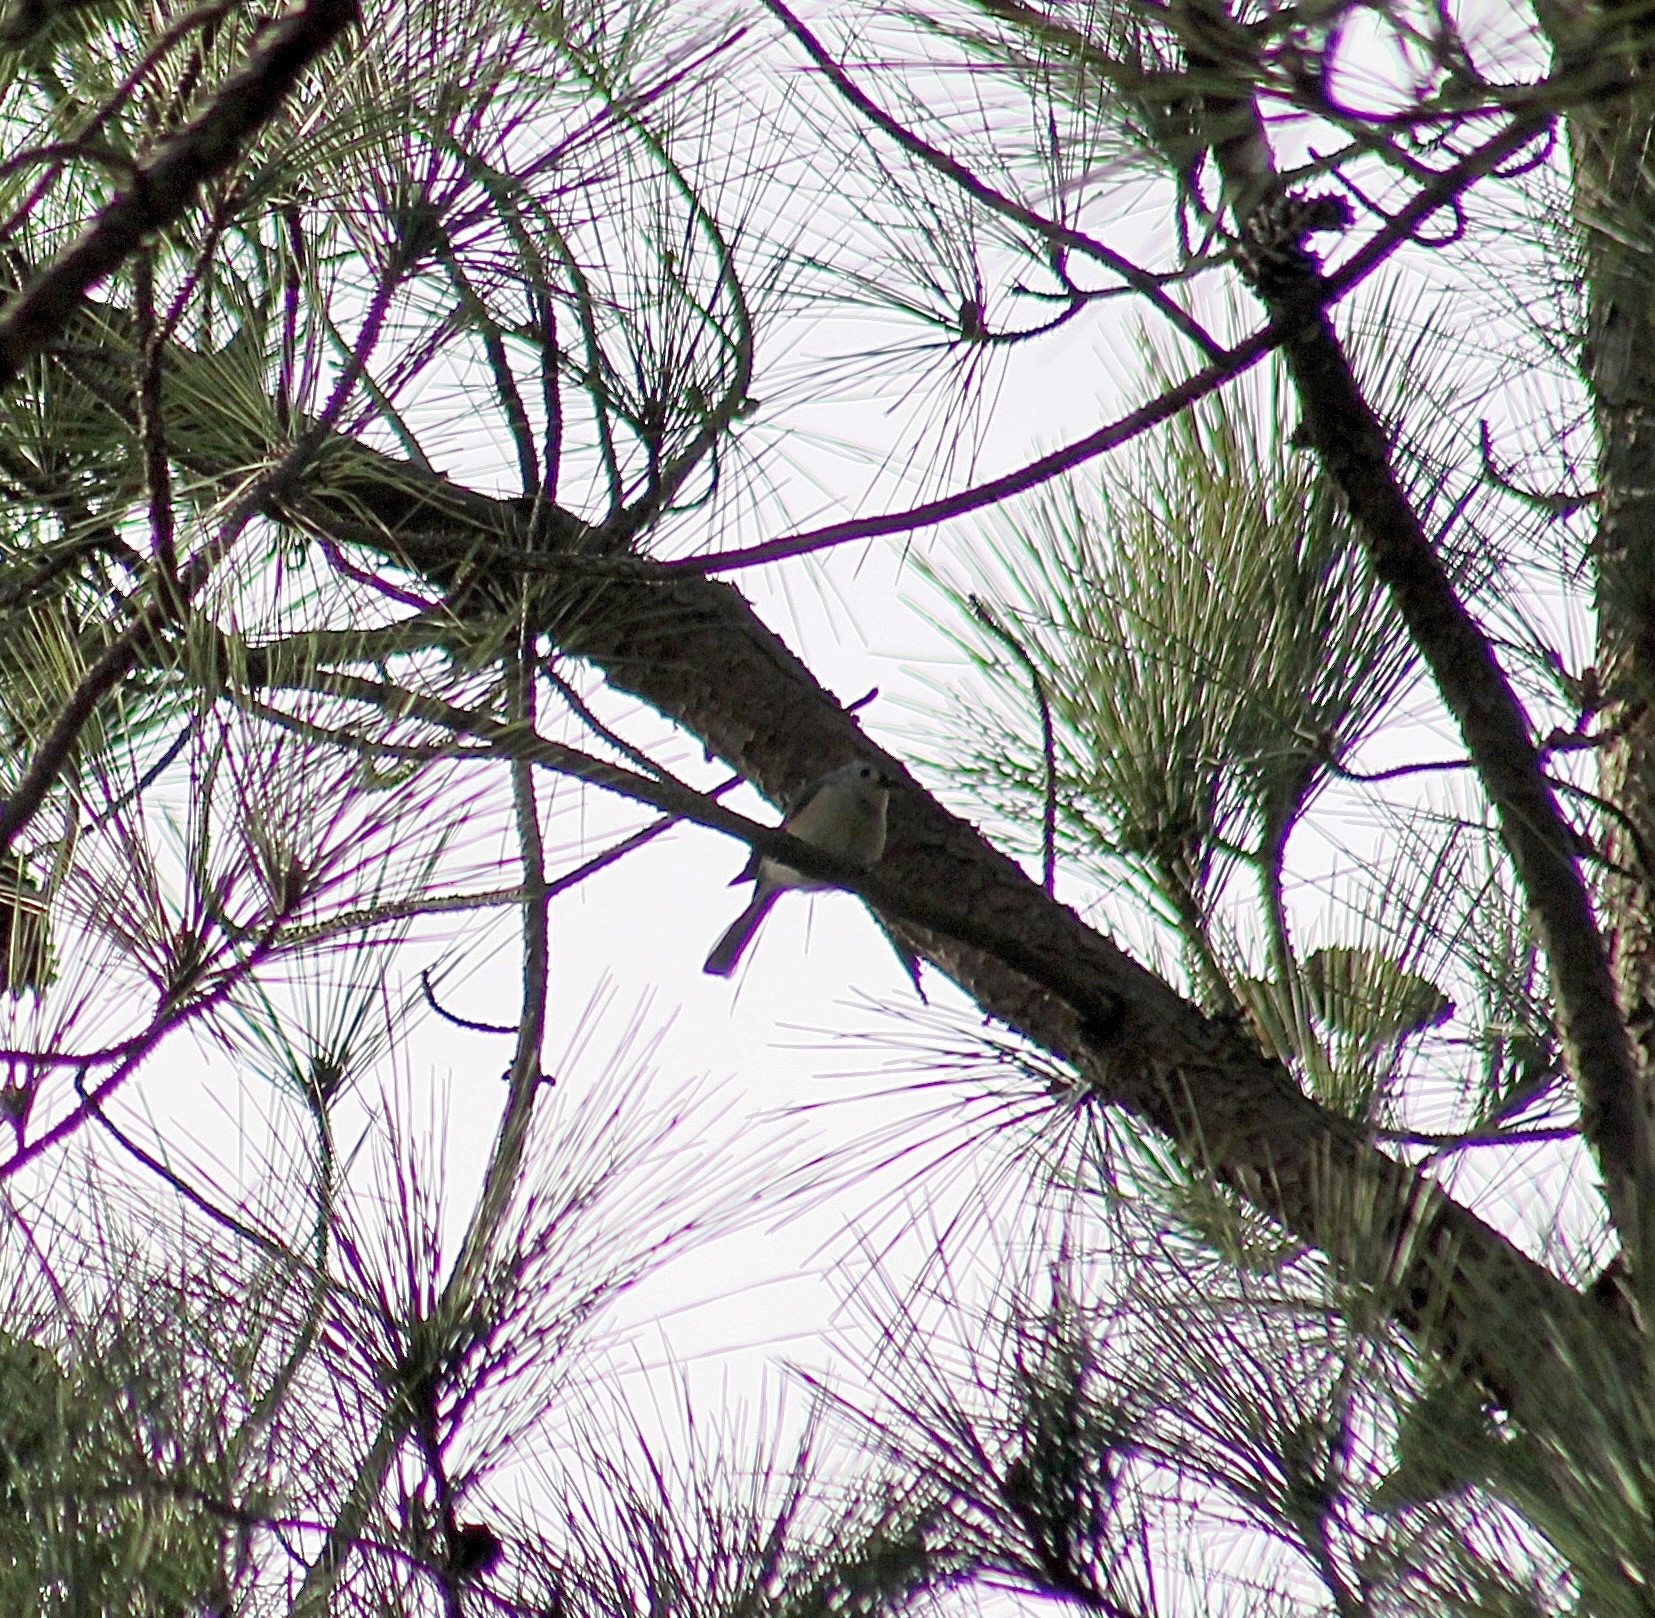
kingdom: Animalia
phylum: Chordata
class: Aves
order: Passeriformes
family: Paridae
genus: Baeolophus
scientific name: Baeolophus bicolor
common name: Tufted titmouse
